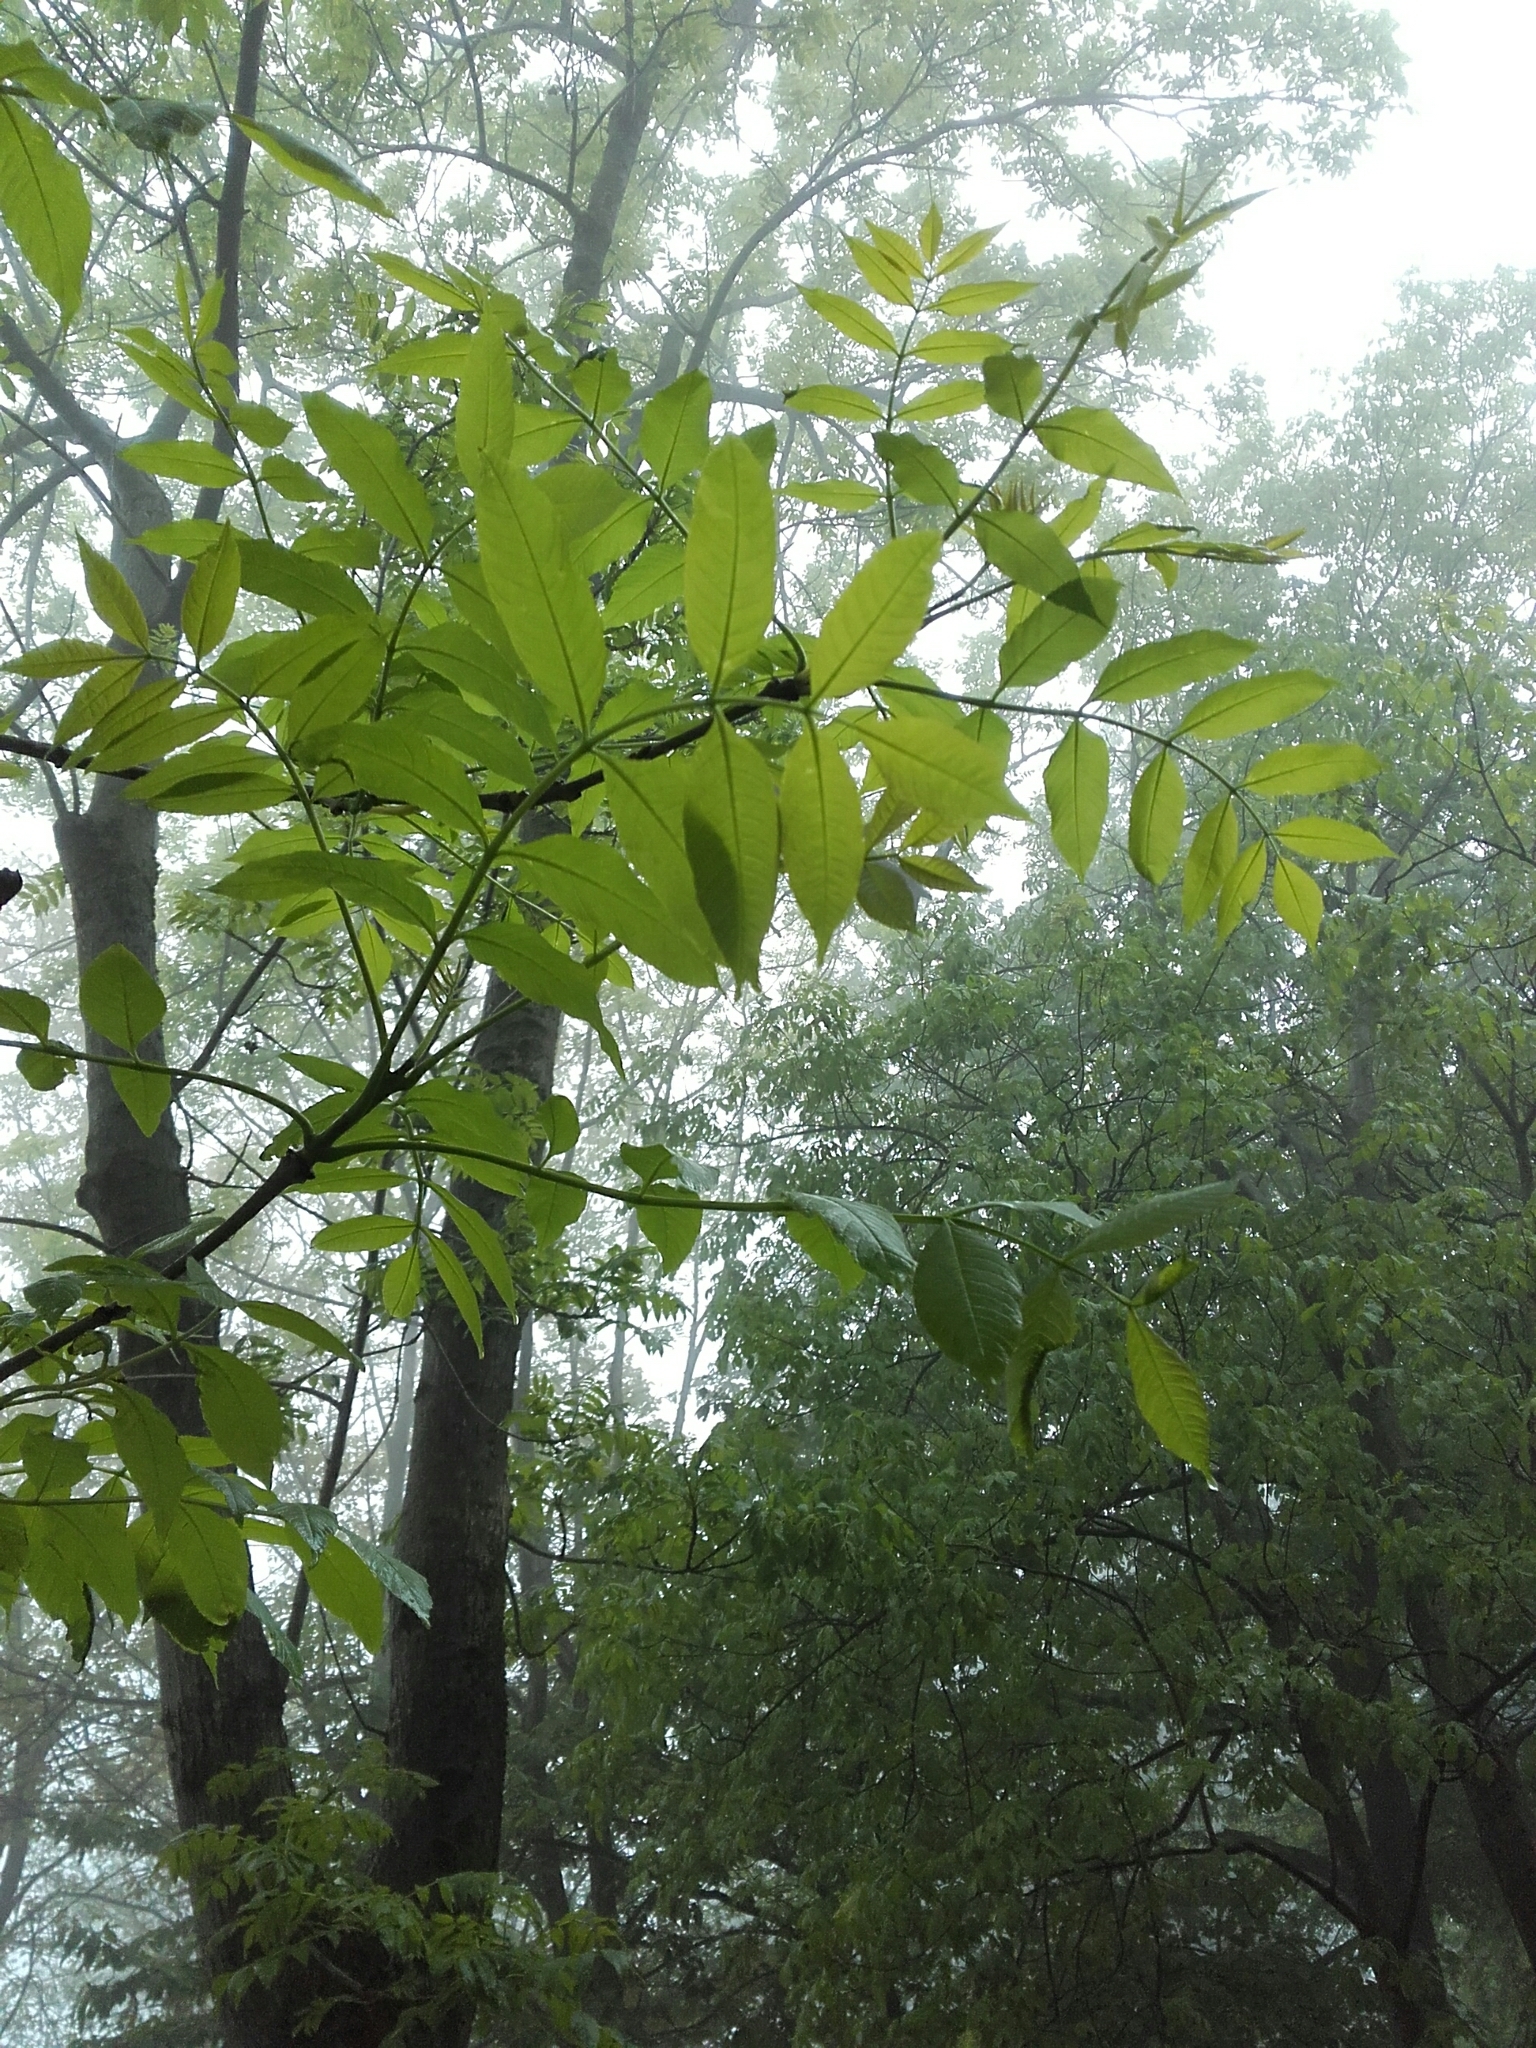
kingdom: Plantae
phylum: Tracheophyta
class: Magnoliopsida
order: Lamiales
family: Oleaceae
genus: Fraxinus
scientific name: Fraxinus excelsior
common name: European ash
